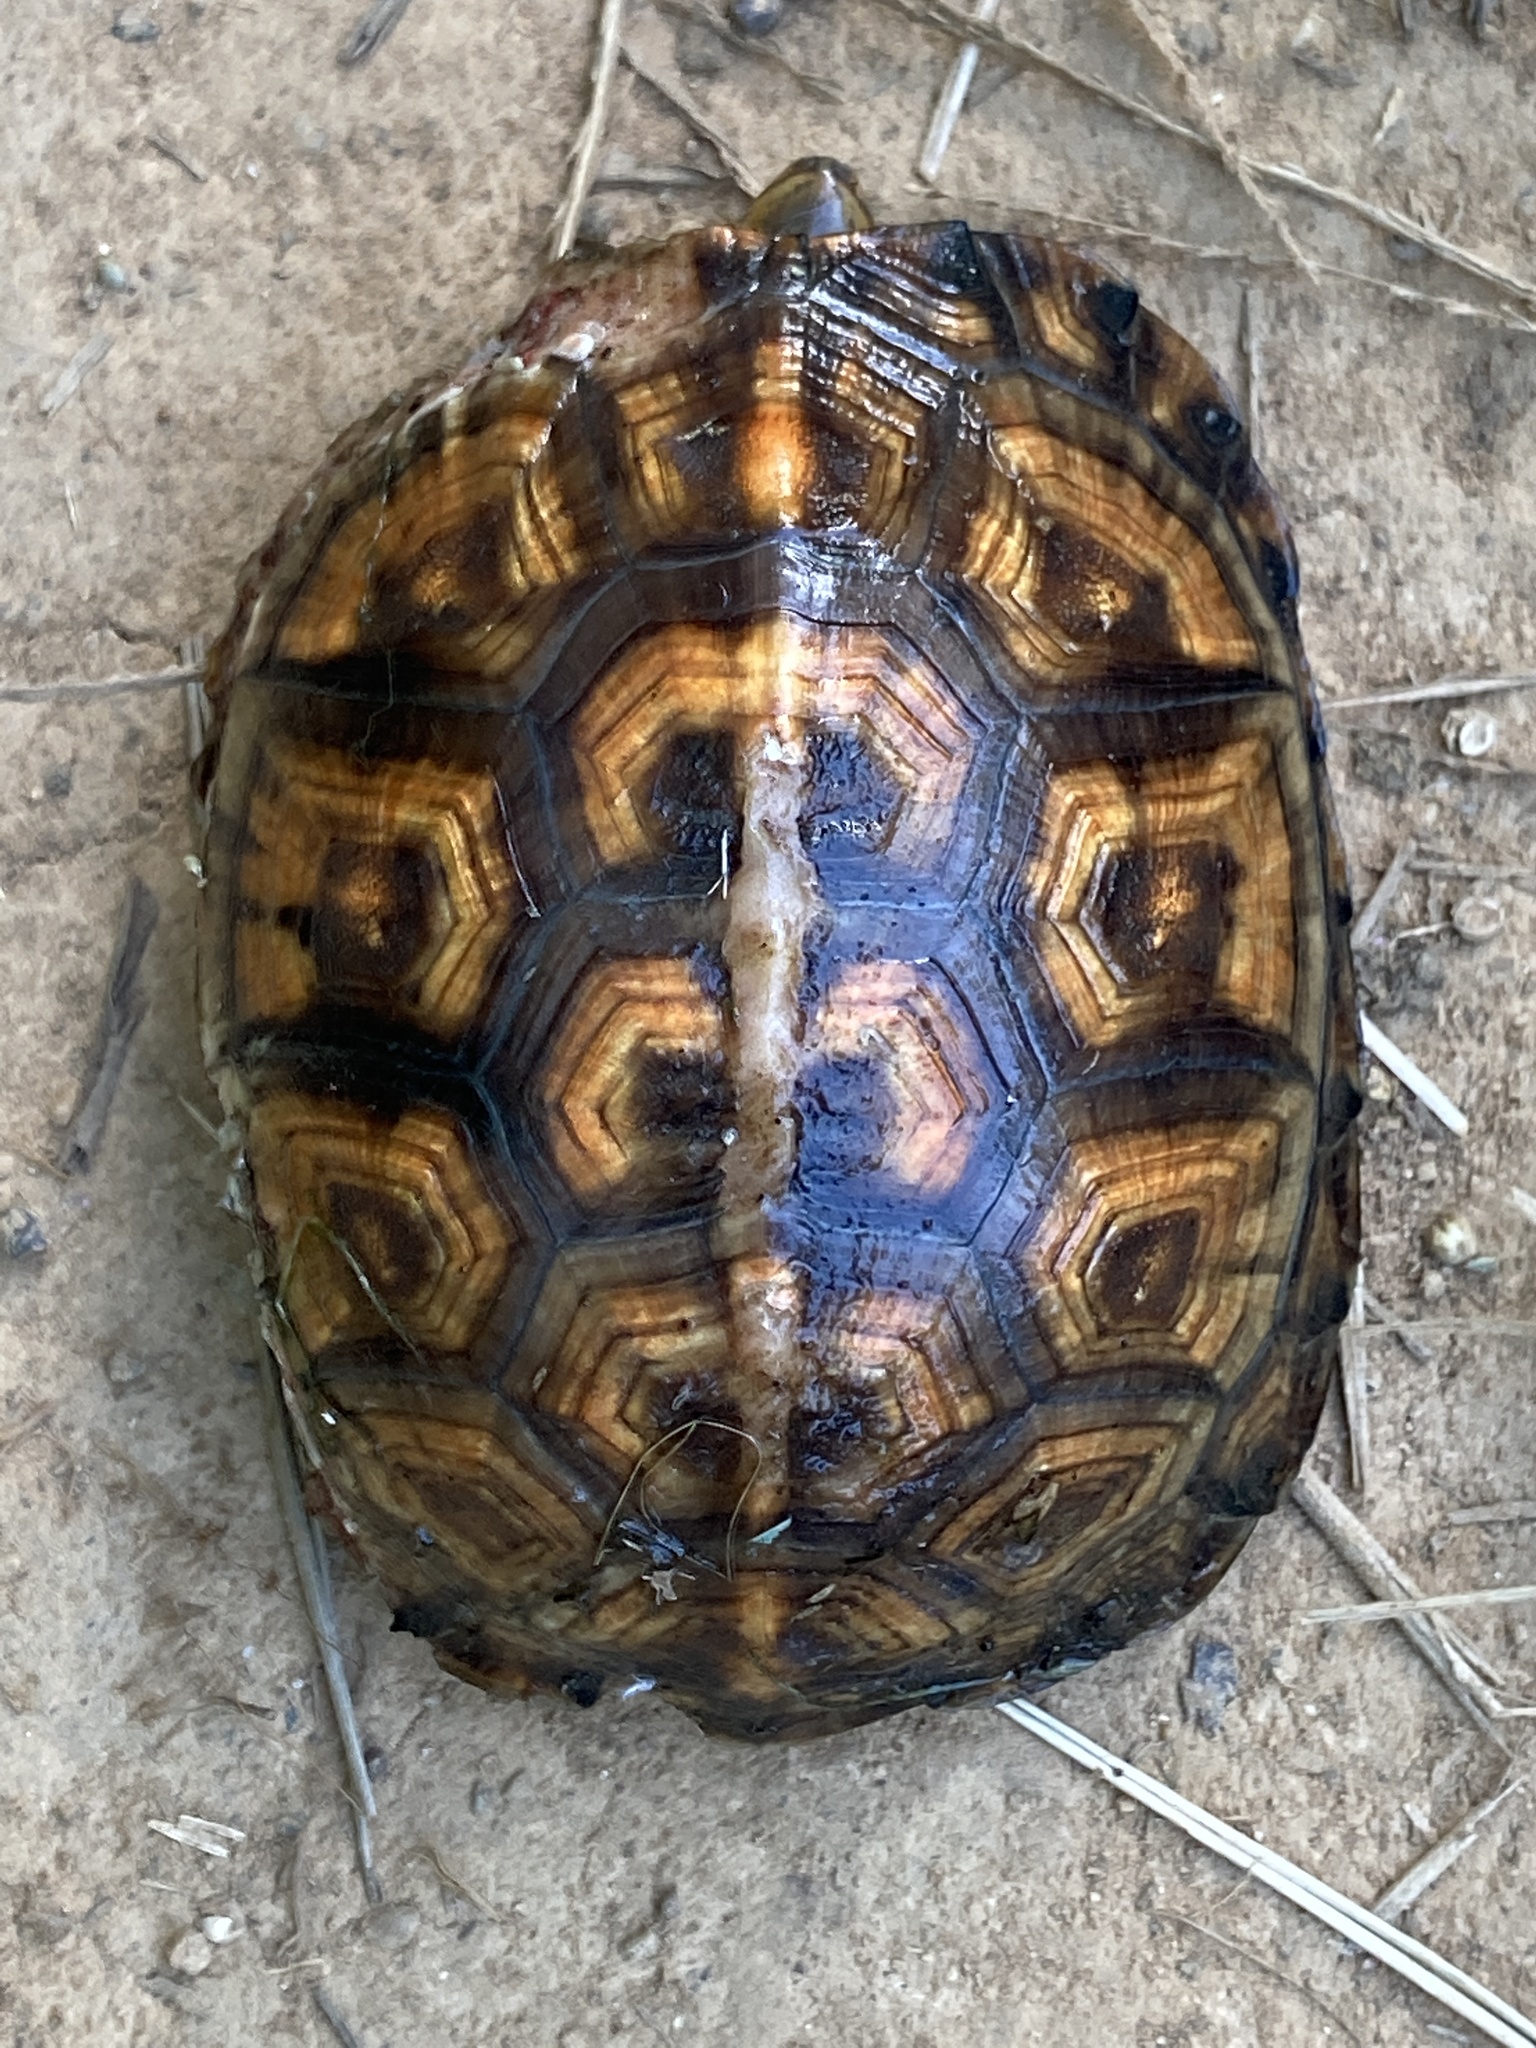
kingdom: Animalia
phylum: Chordata
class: Testudines
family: Emydidae
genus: Terrapene
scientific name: Terrapene carolina
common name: Common box turtle
